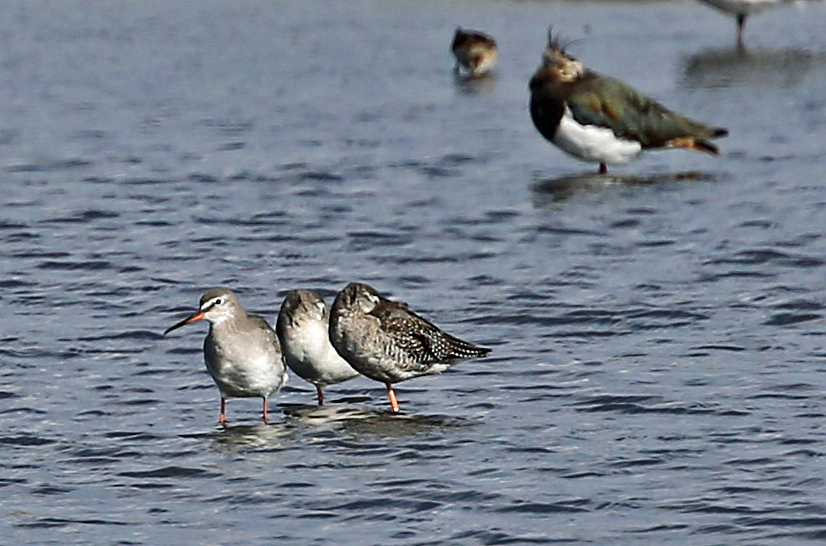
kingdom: Animalia
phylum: Chordata
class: Aves
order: Charadriiformes
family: Scolopacidae
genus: Tringa
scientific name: Tringa erythropus
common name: Spotted redshank
